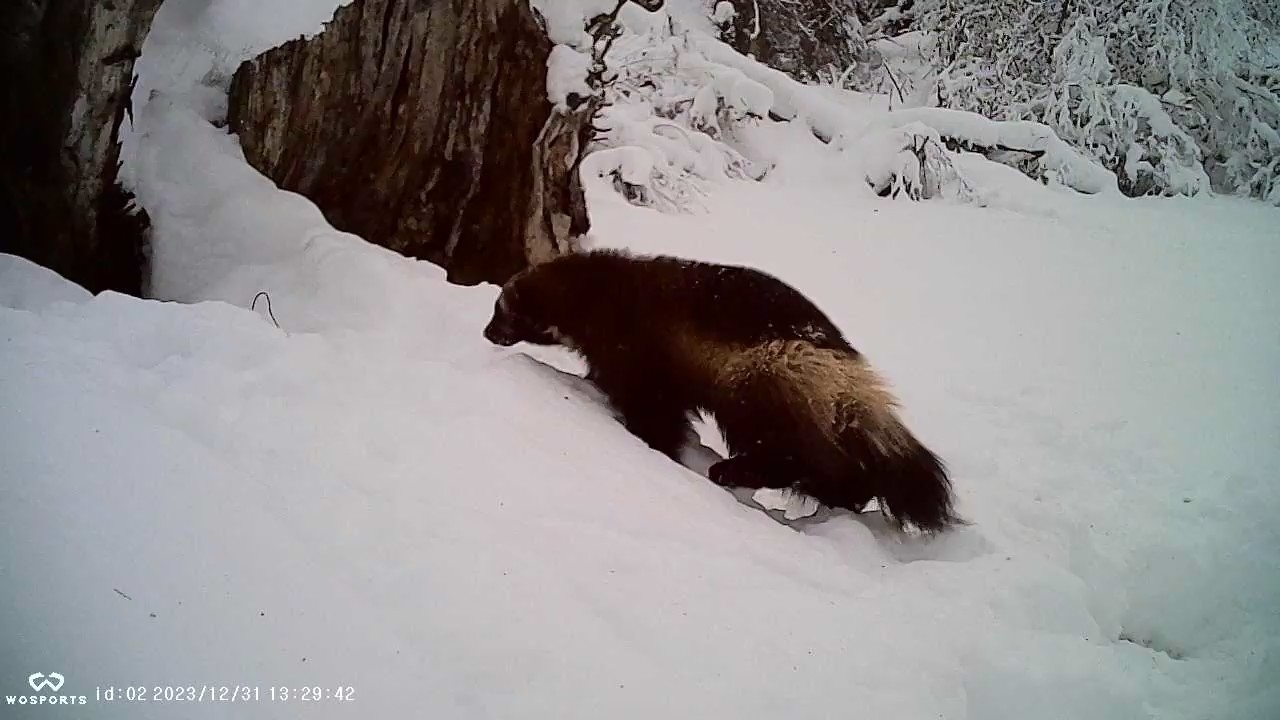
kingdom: Animalia
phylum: Chordata
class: Mammalia
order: Carnivora
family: Mustelidae
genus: Gulo
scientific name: Gulo gulo
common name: Wolverine
